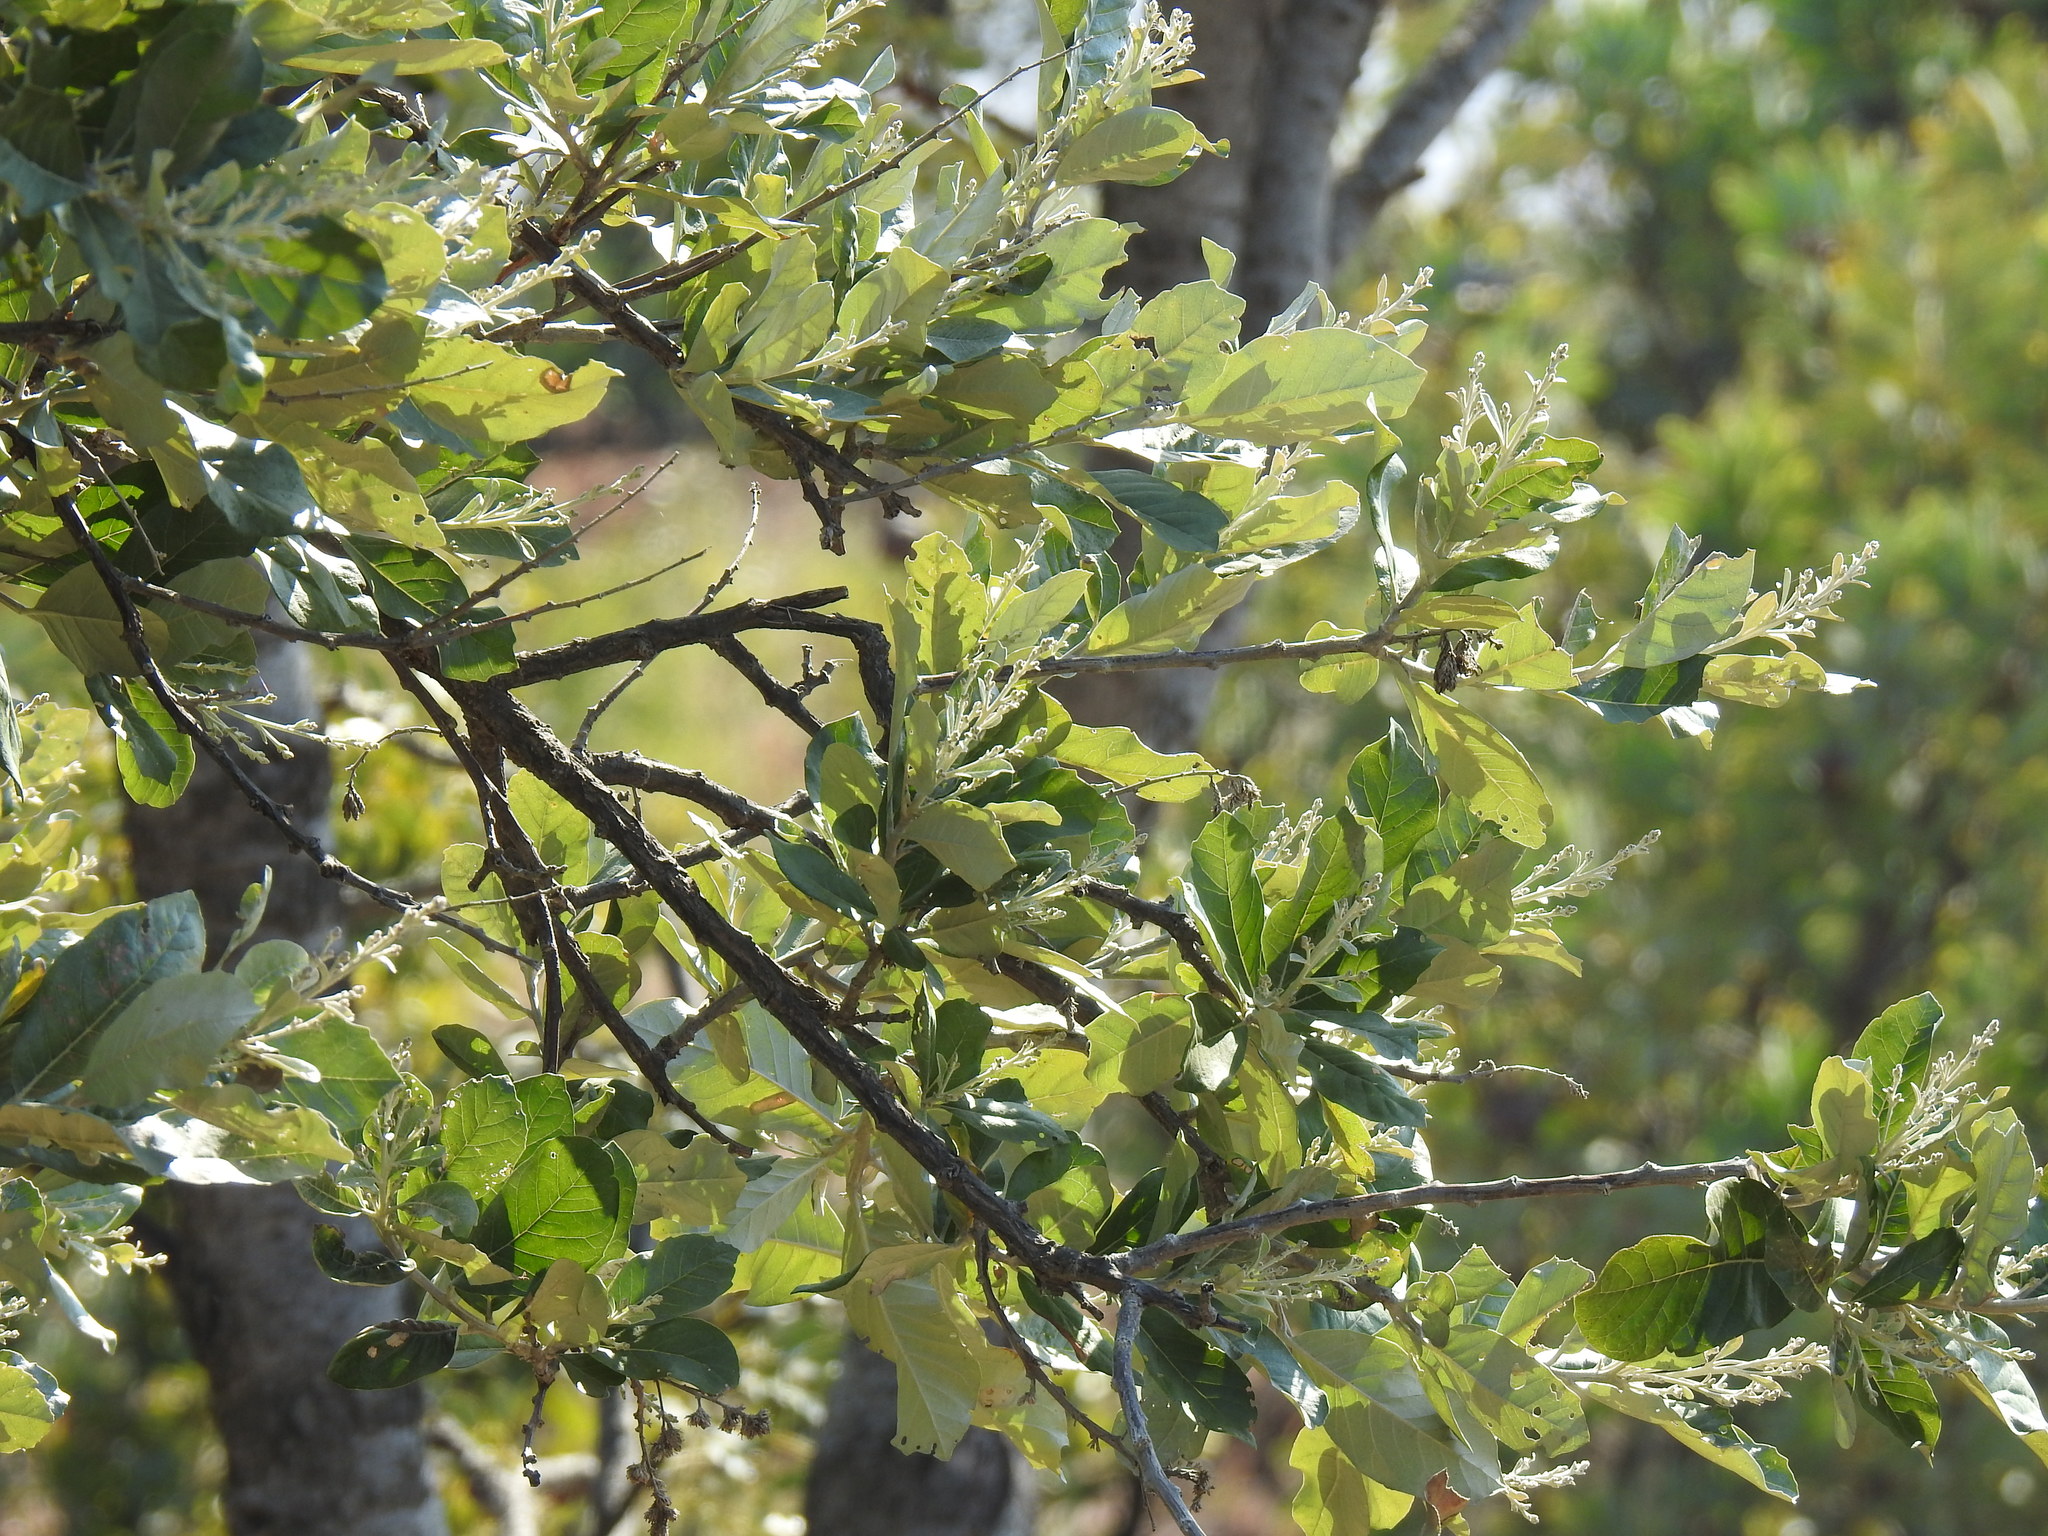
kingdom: Plantae
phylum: Tracheophyta
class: Magnoliopsida
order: Asterales
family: Asteraceae
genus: Brachylaena
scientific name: Brachylaena discolor
